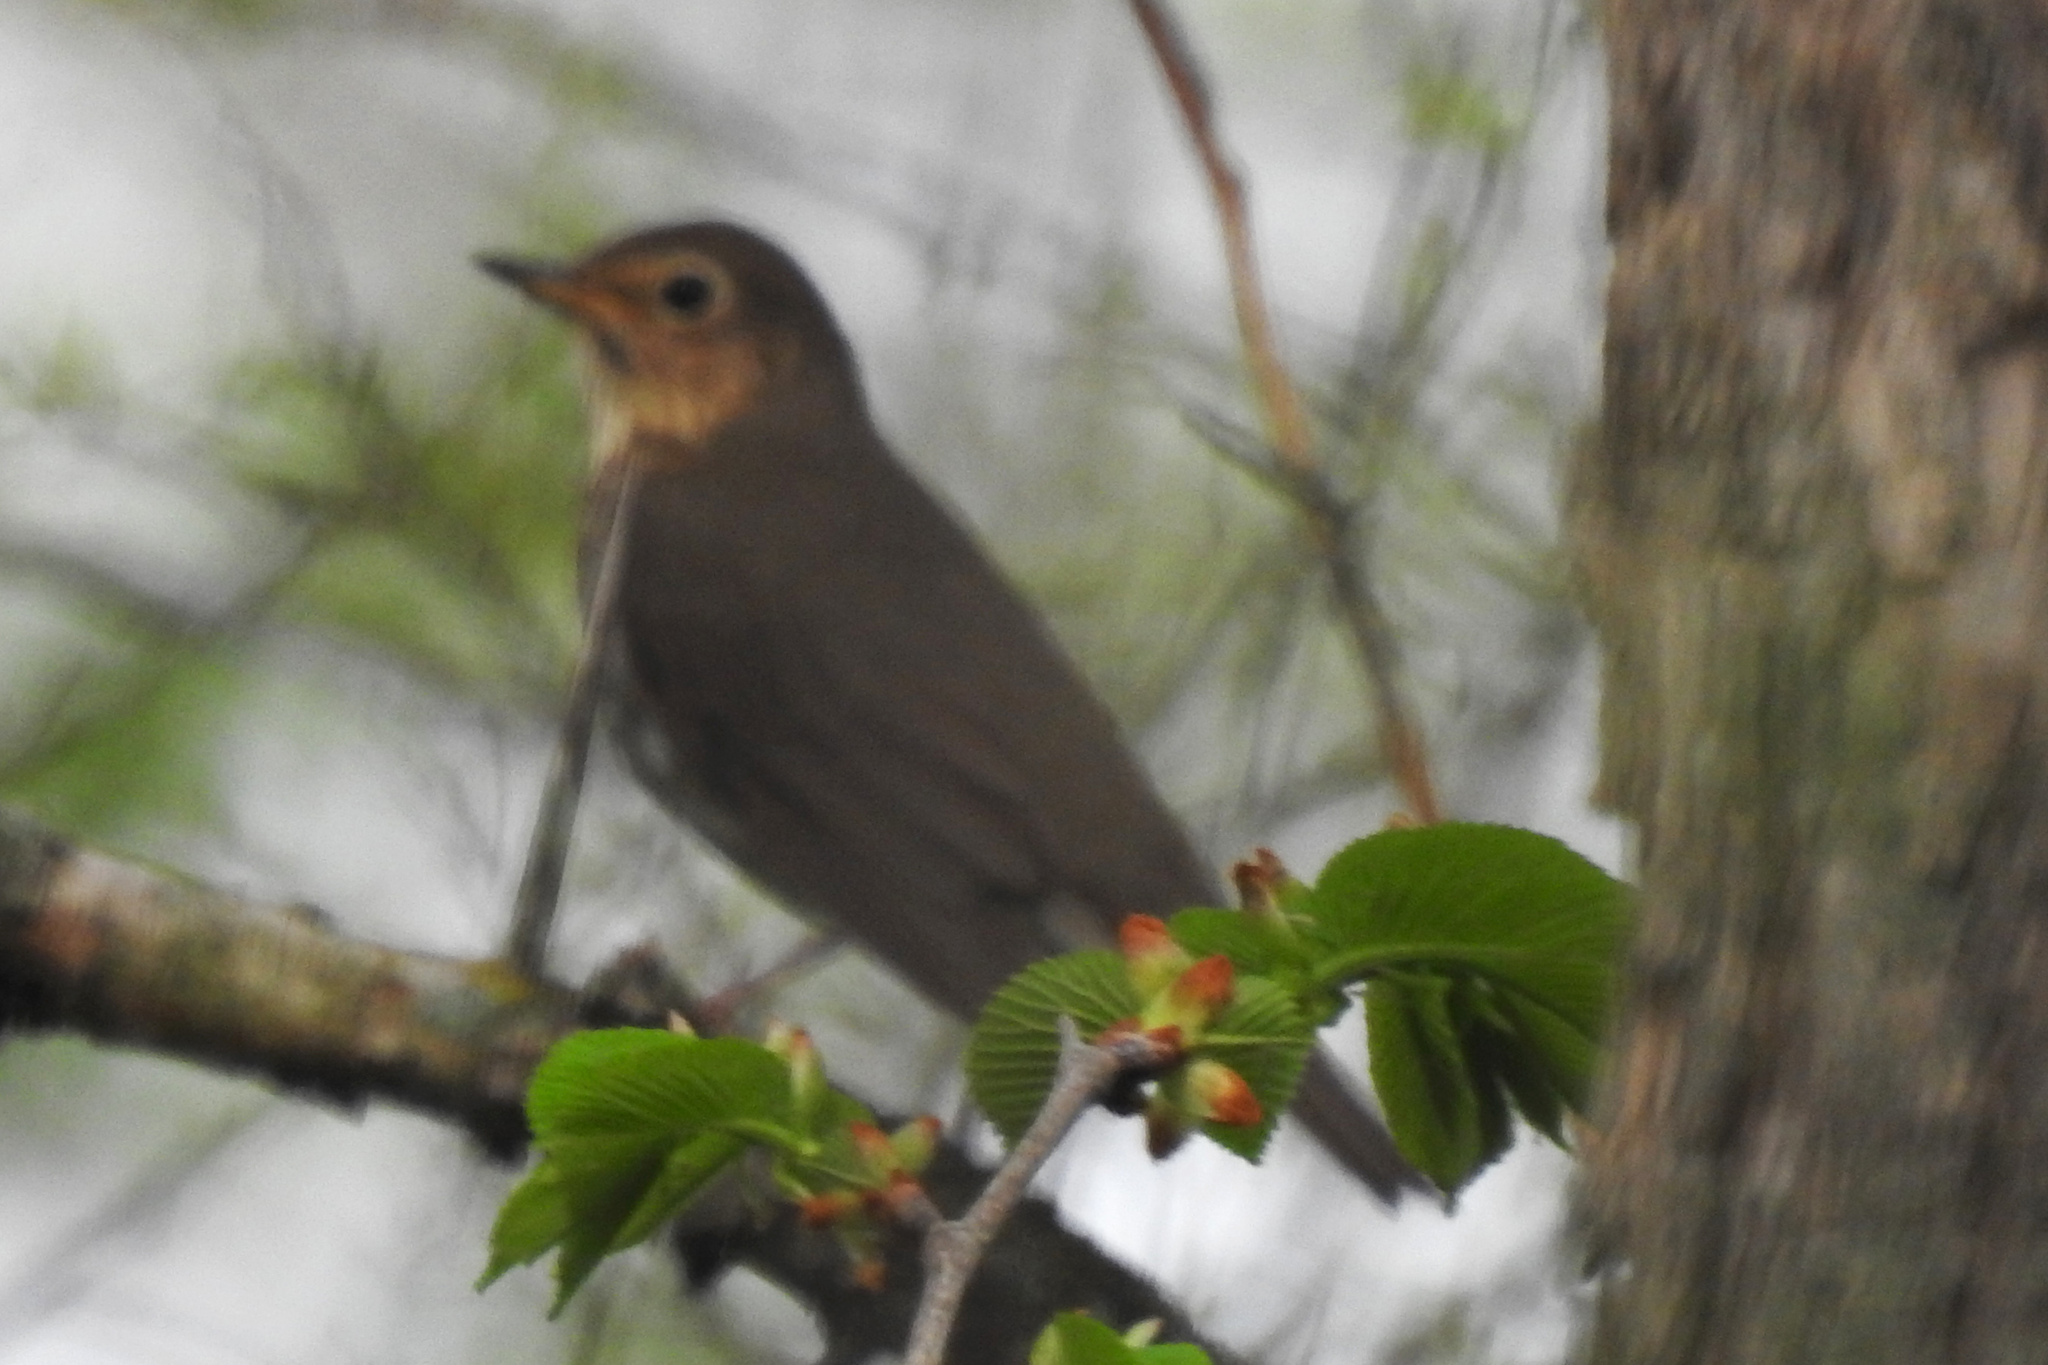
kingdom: Animalia
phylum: Chordata
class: Aves
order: Passeriformes
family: Turdidae
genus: Catharus
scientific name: Catharus ustulatus
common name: Swainson's thrush
